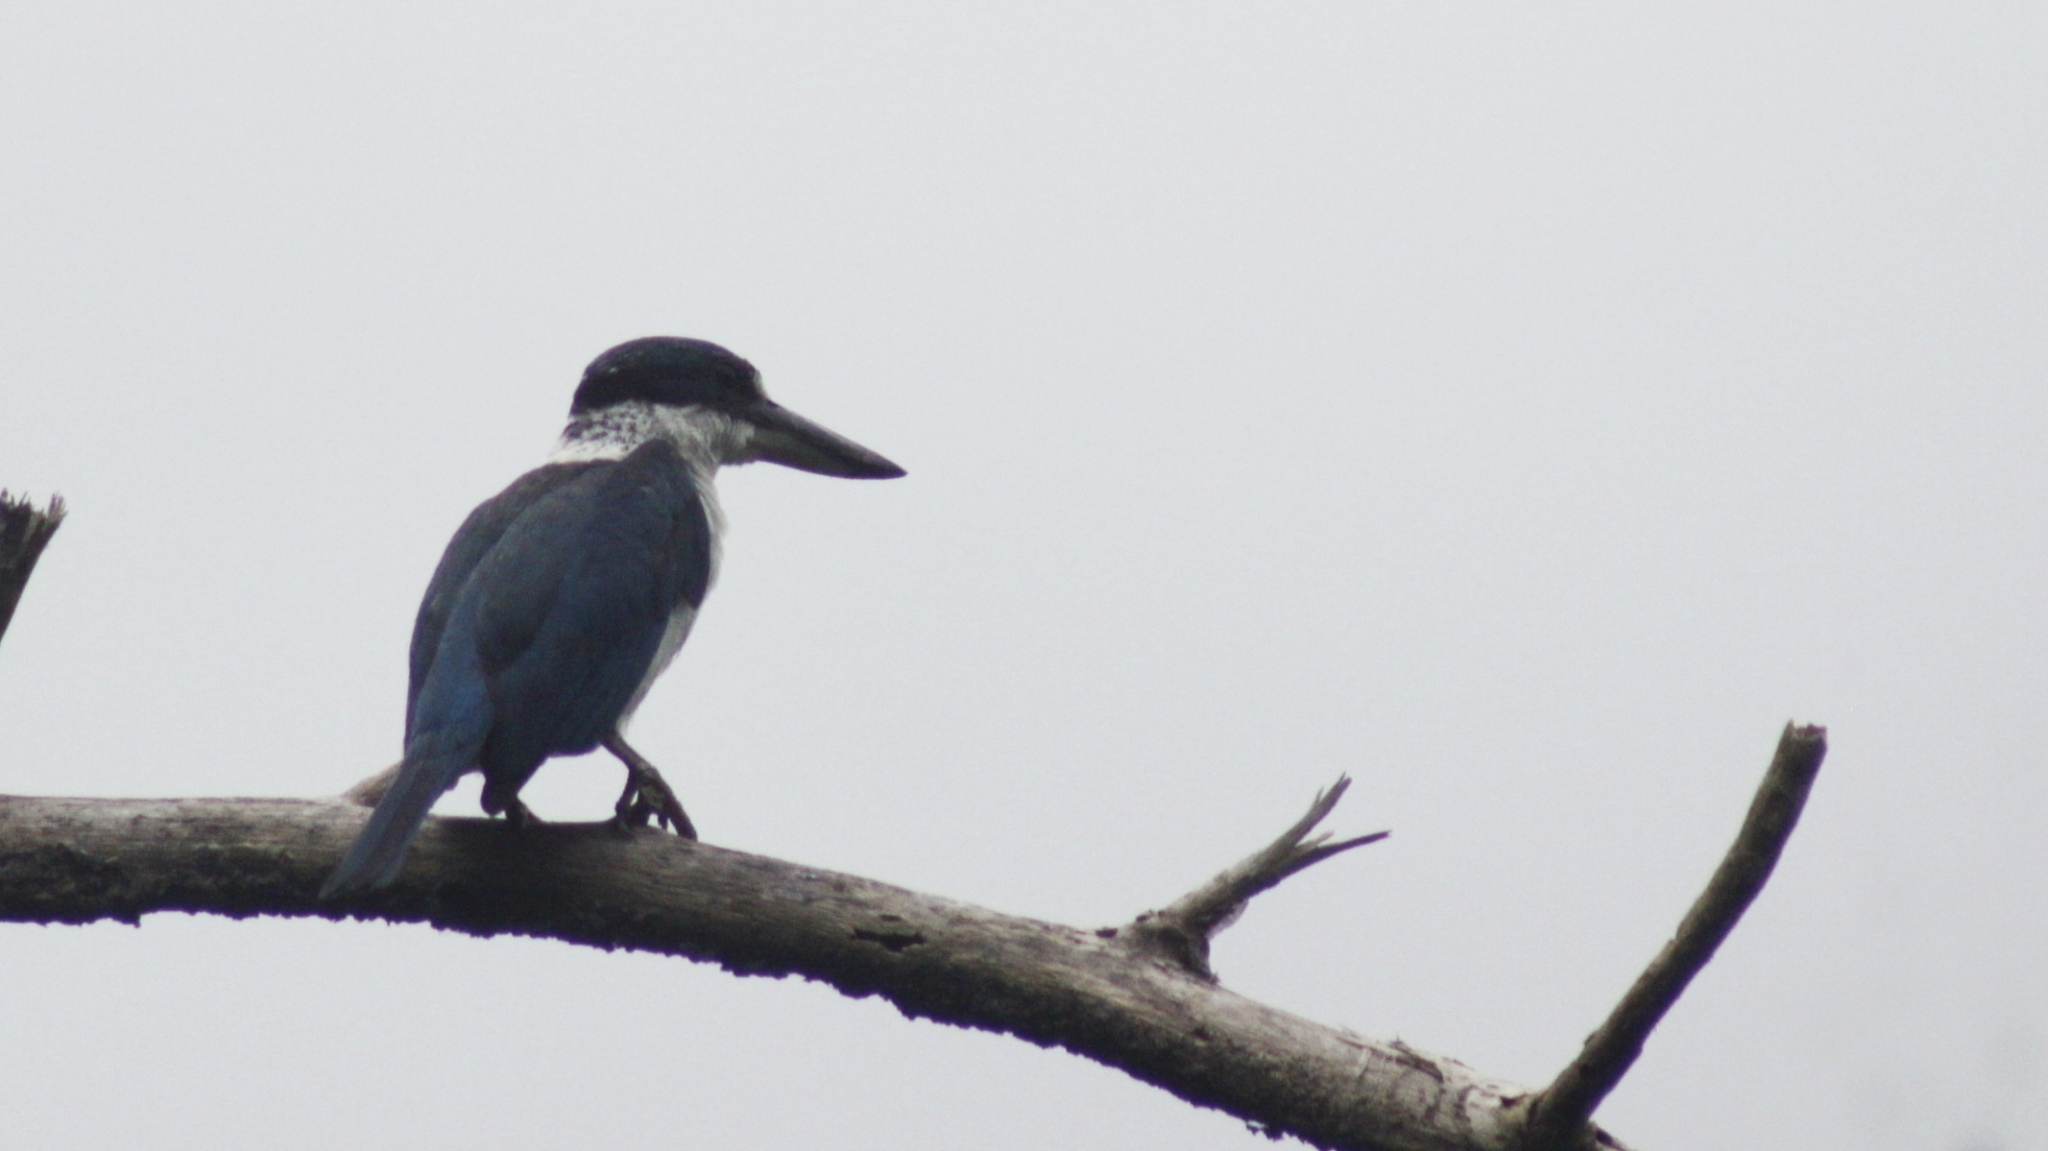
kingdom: Animalia
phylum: Chordata
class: Aves
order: Coraciiformes
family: Alcedinidae
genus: Todiramphus
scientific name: Todiramphus chloris
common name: Collared kingfisher
